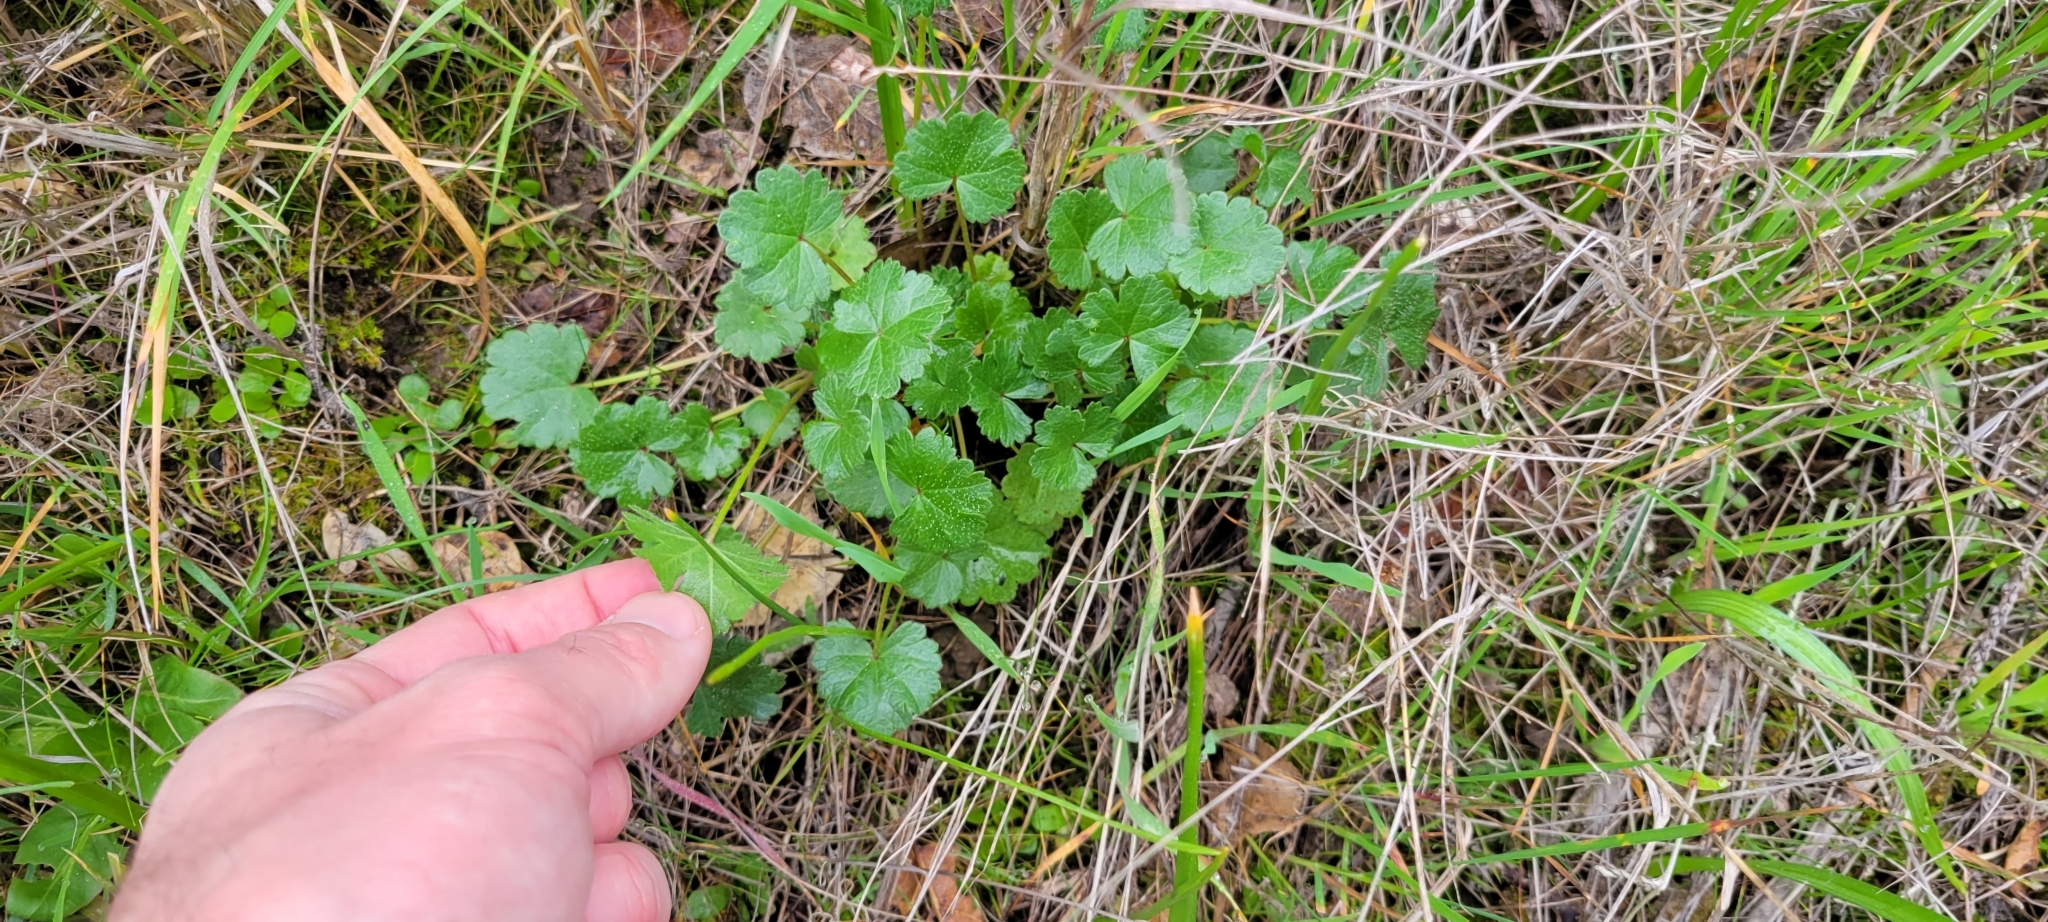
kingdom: Plantae
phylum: Tracheophyta
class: Magnoliopsida
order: Malvales
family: Malvaceae
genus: Sidalcea
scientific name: Sidalcea malviflora
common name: Greek mallow
